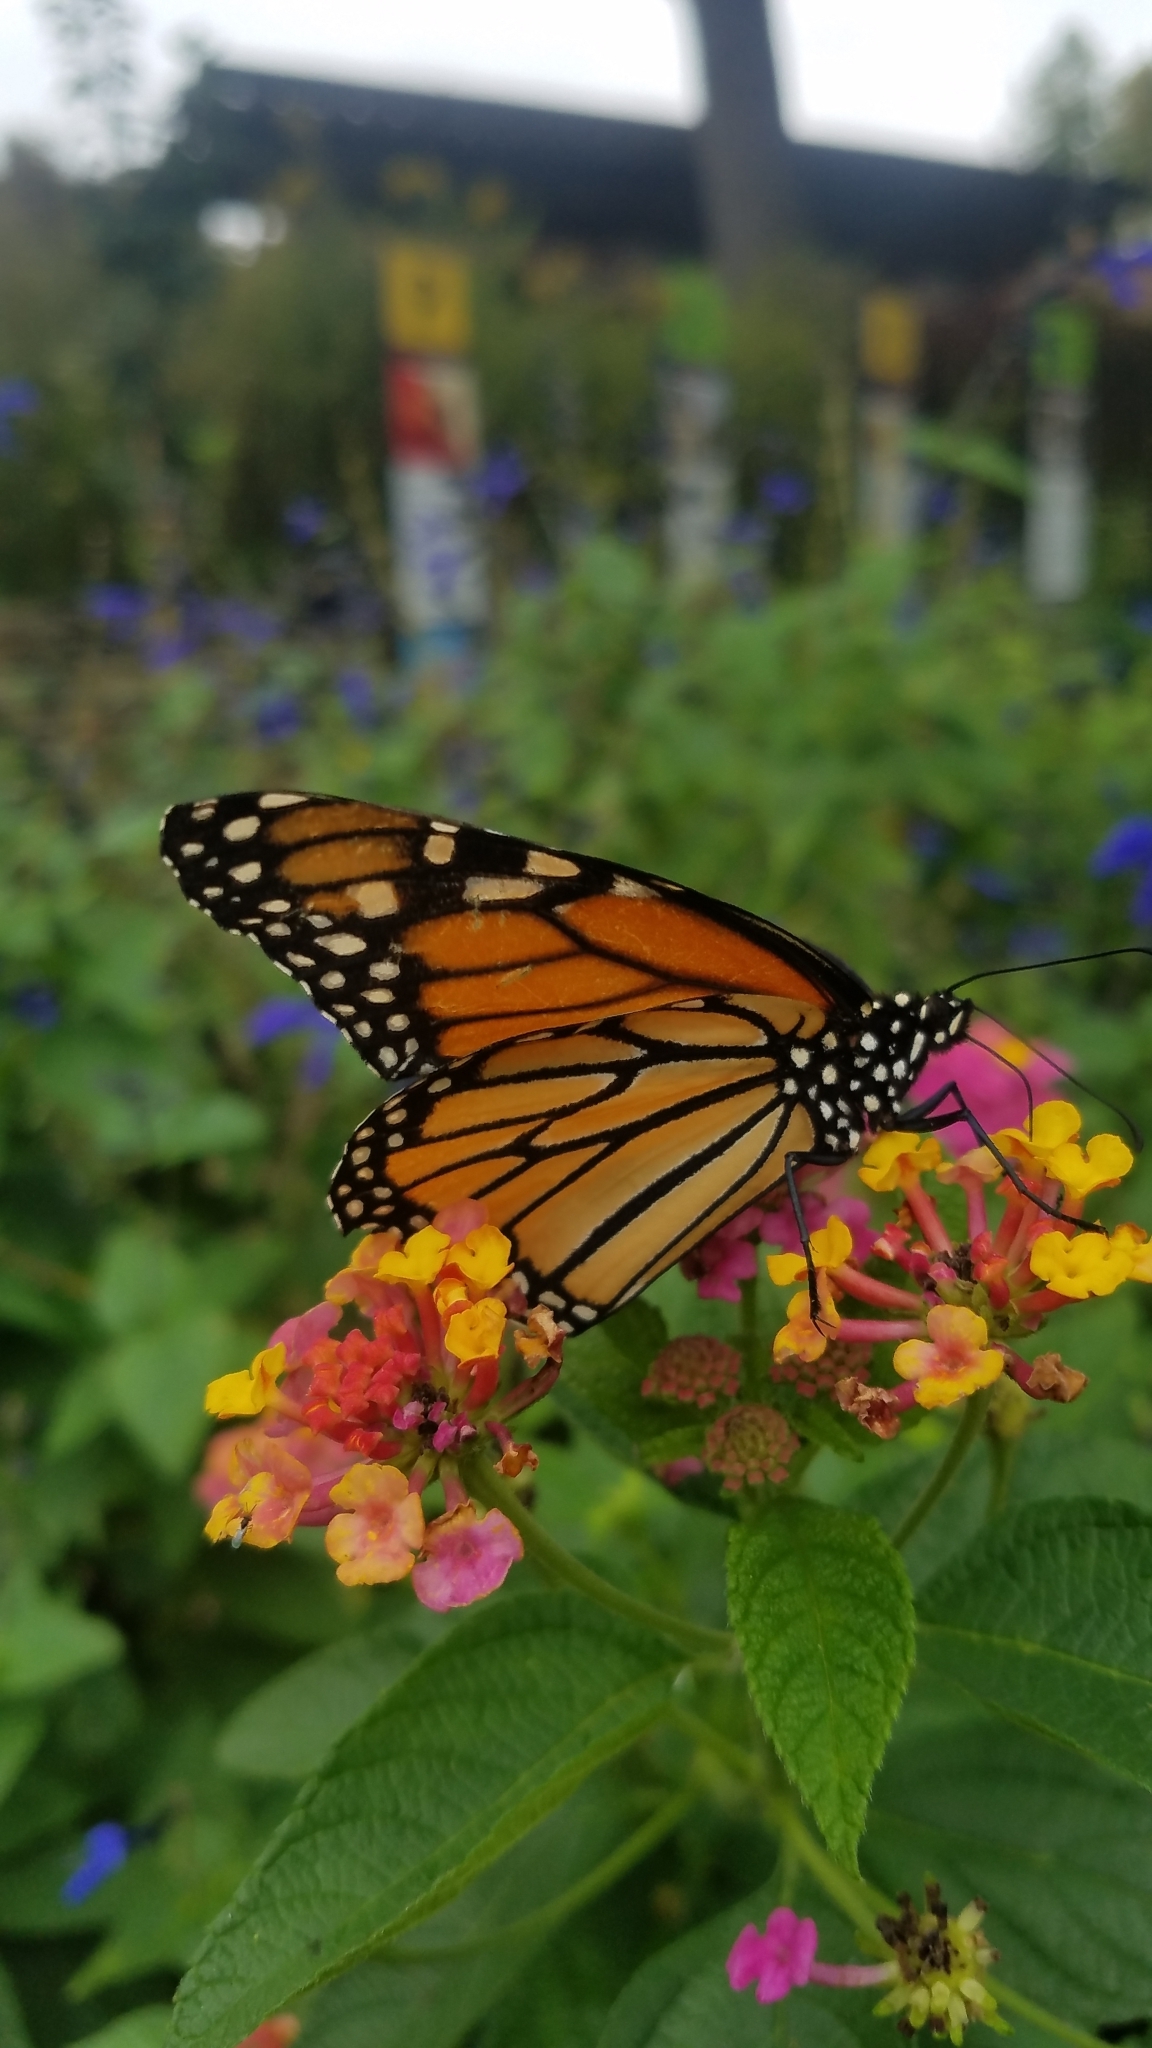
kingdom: Animalia
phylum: Arthropoda
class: Insecta
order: Lepidoptera
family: Nymphalidae
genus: Danaus
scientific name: Danaus plexippus
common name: Monarch
